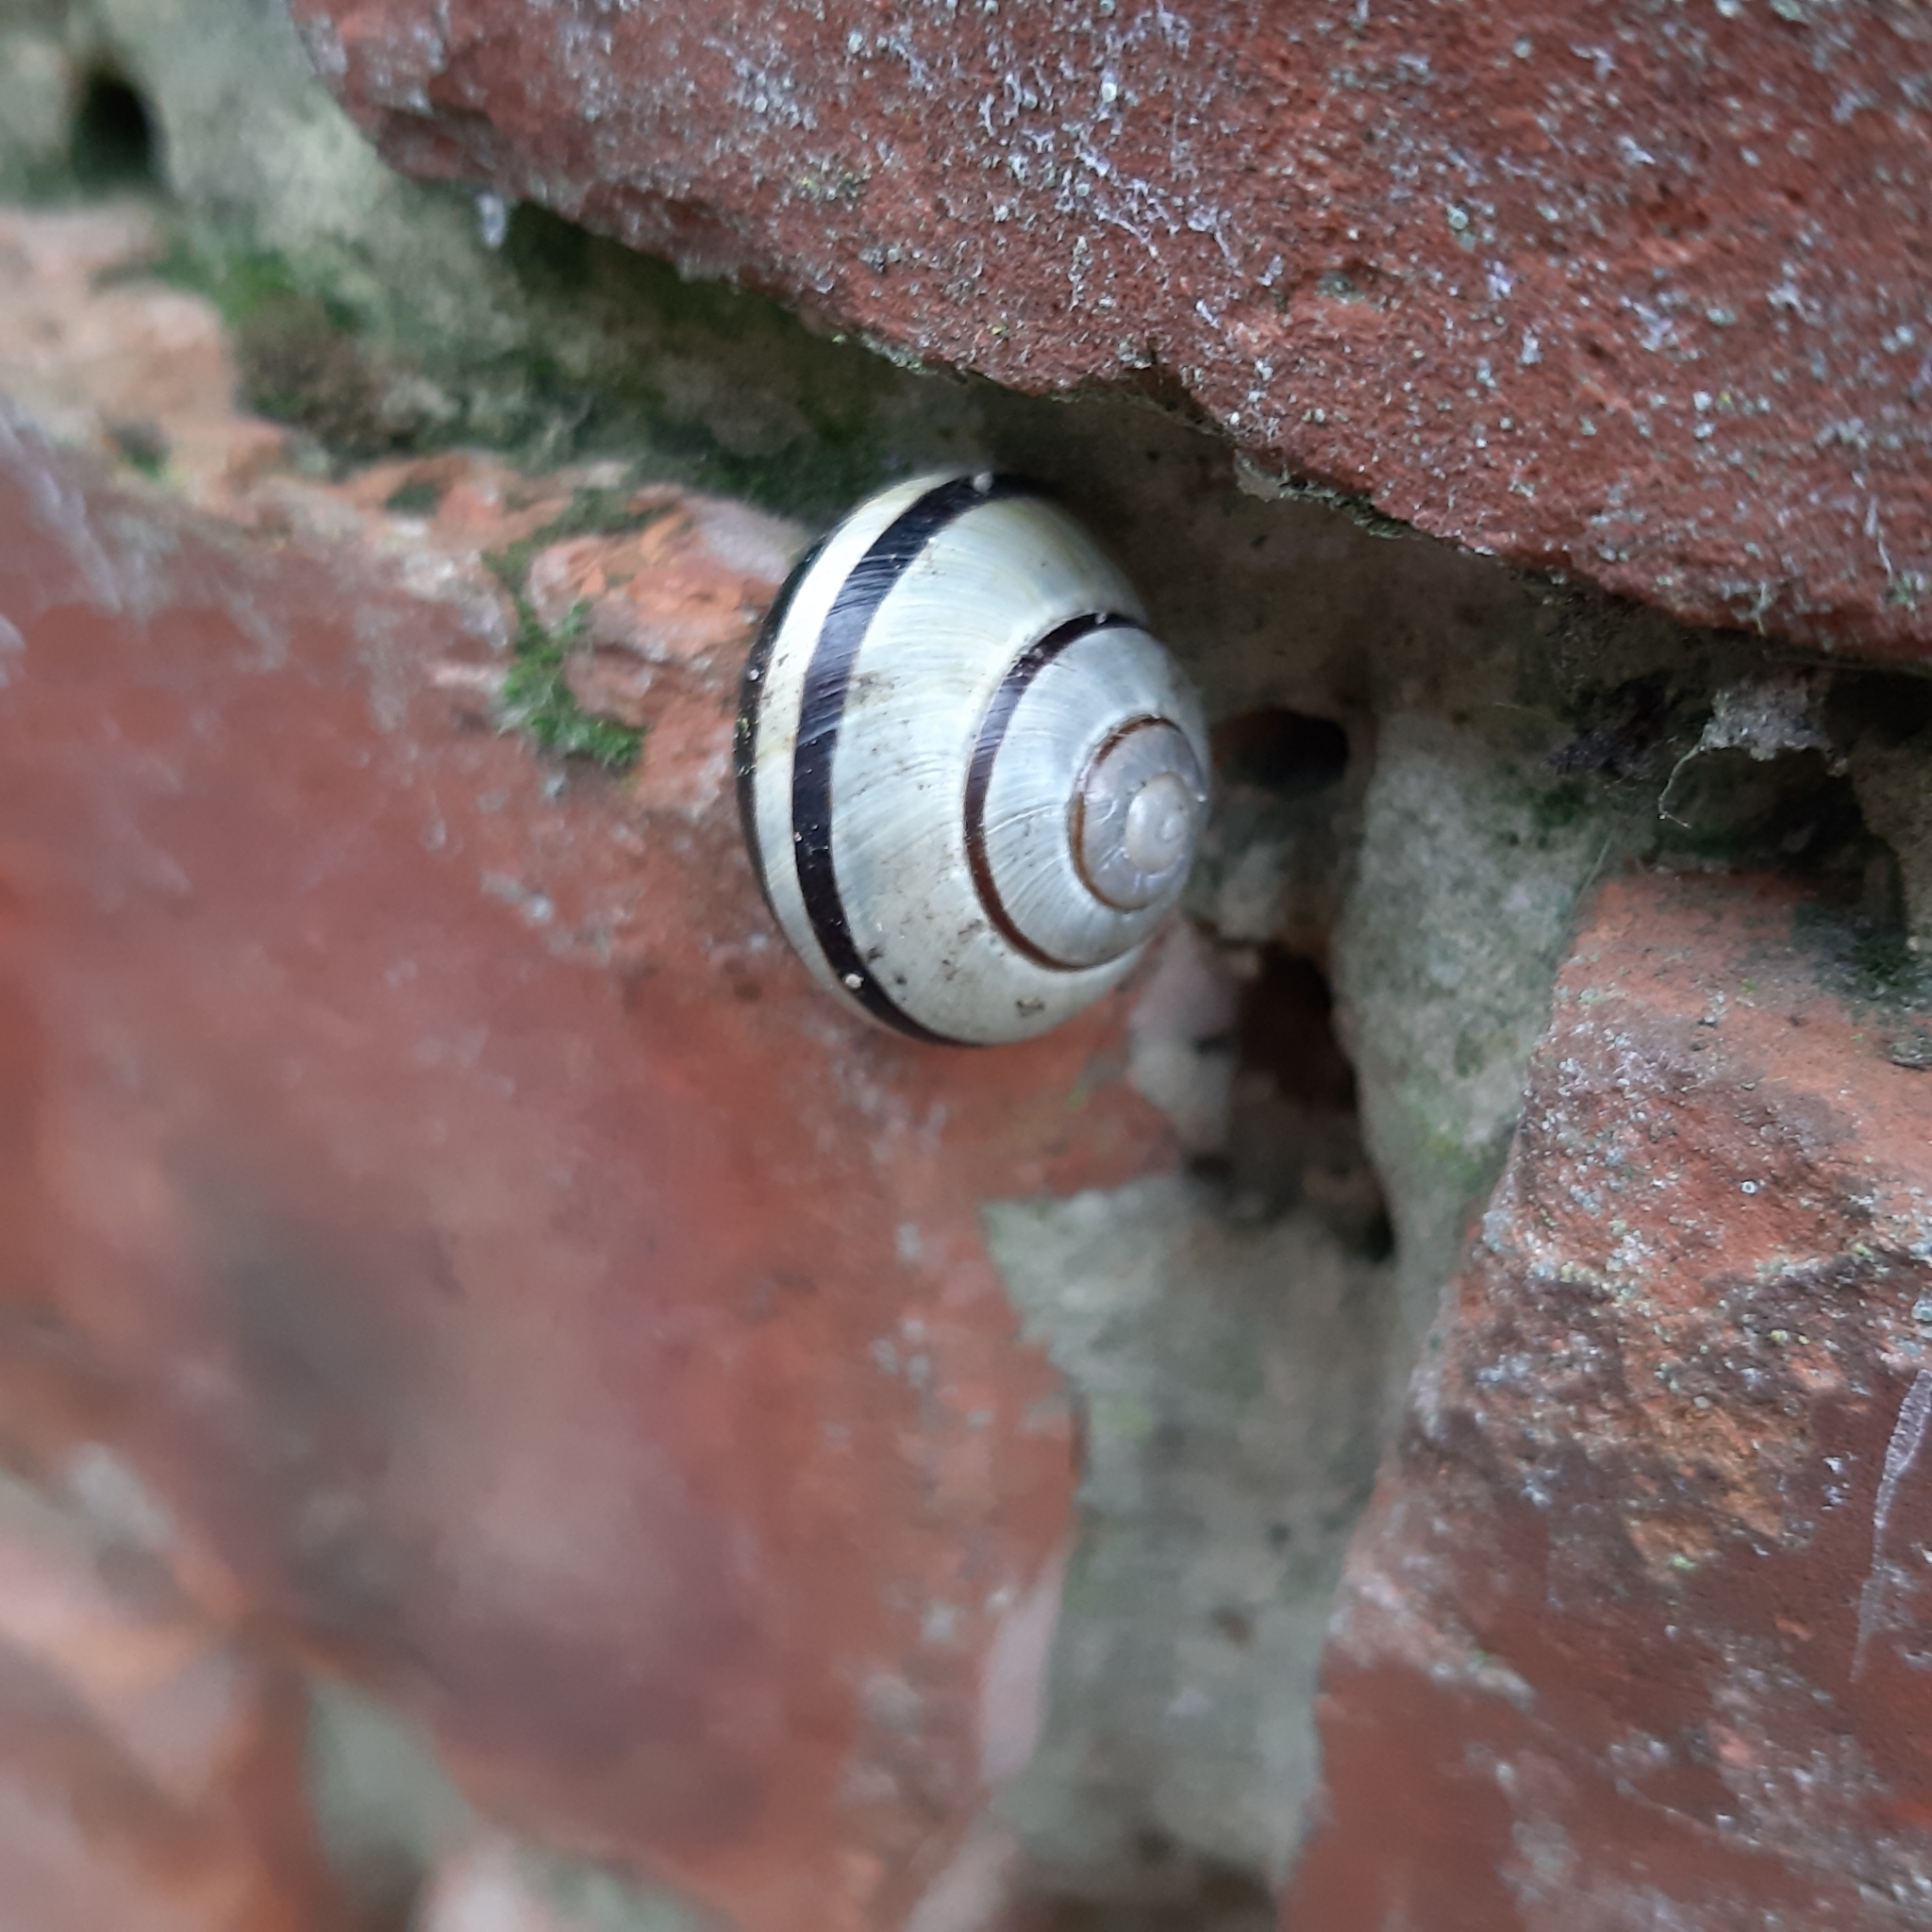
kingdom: Animalia
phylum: Mollusca
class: Gastropoda
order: Stylommatophora
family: Helicidae
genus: Cepaea
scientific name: Cepaea nemoralis
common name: Grovesnail
